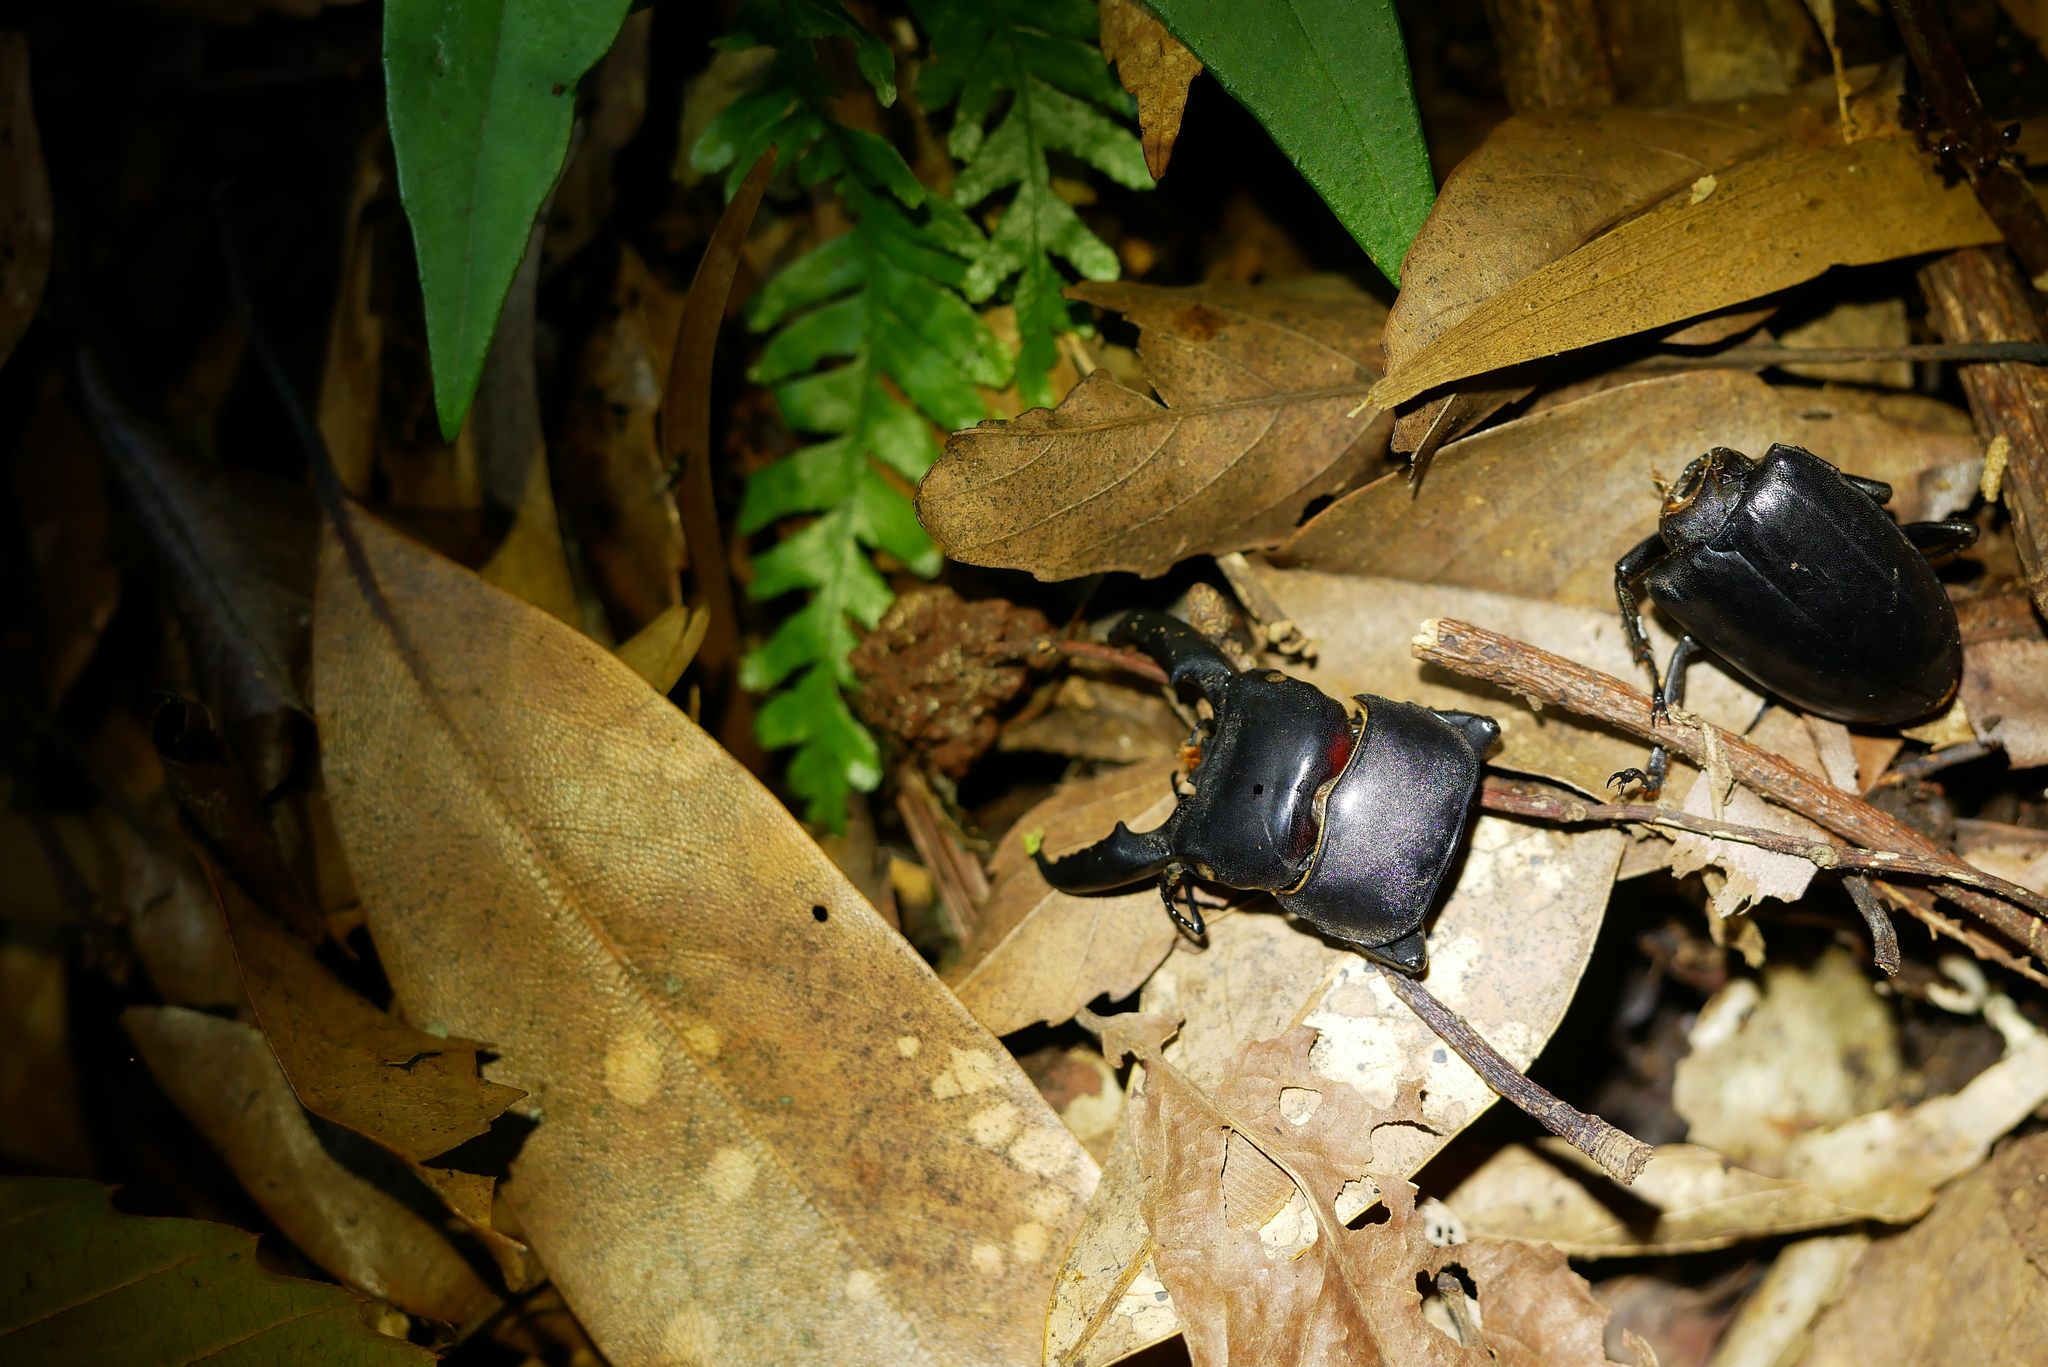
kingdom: Animalia
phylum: Arthropoda
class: Insecta
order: Coleoptera
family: Lucanidae
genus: Serrognathus
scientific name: Serrognathus titanus
